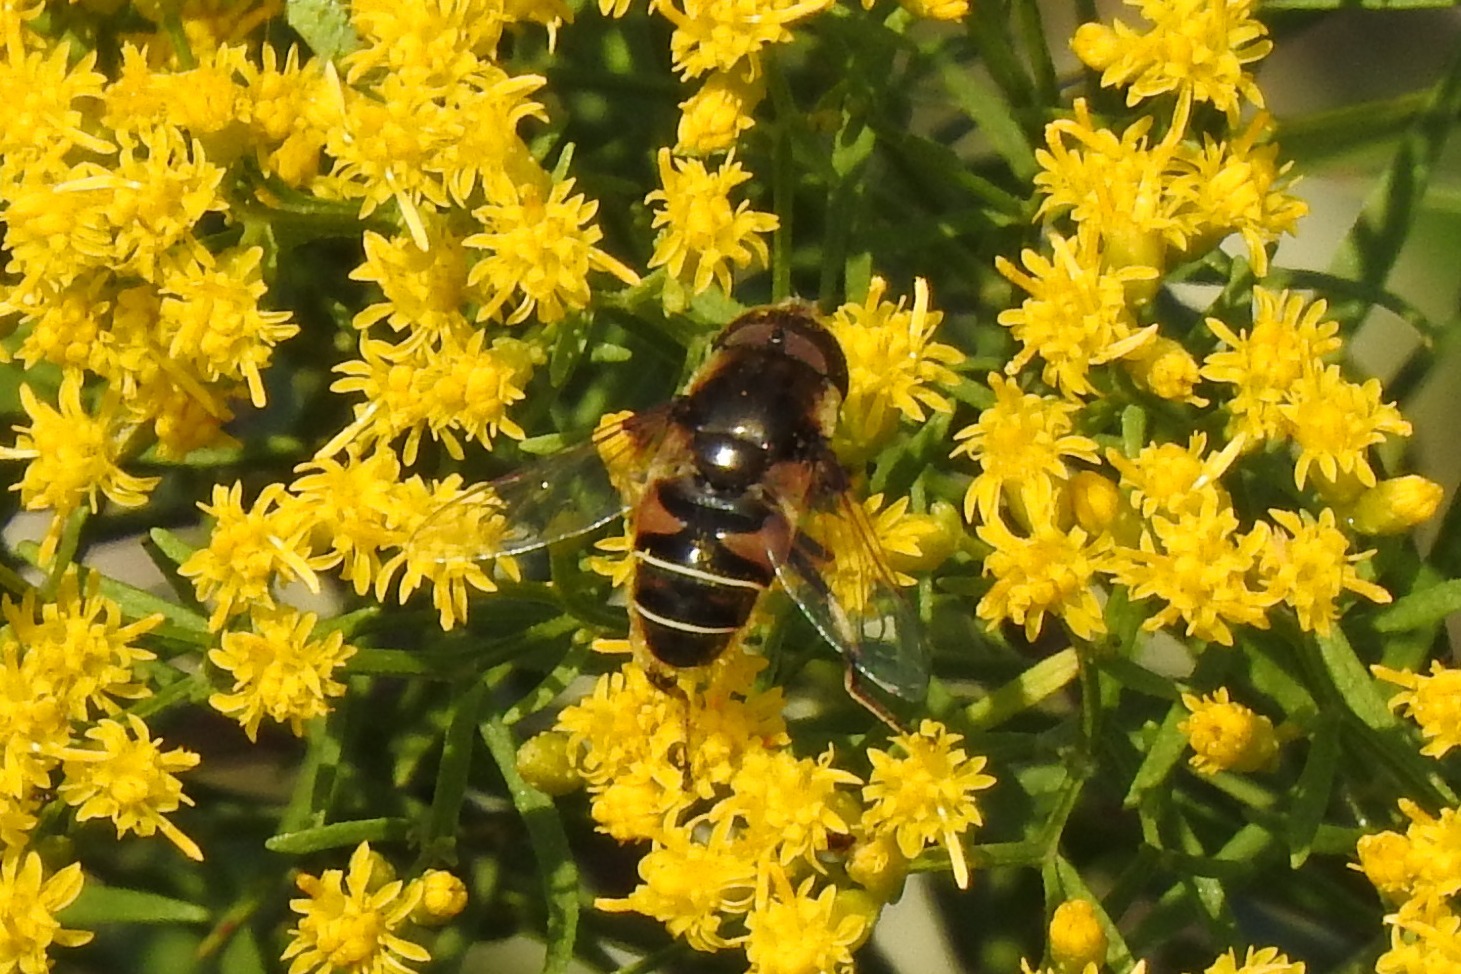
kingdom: Animalia
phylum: Arthropoda
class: Insecta
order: Diptera
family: Syrphidae
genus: Eristalis
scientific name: Eristalis dimidiata
